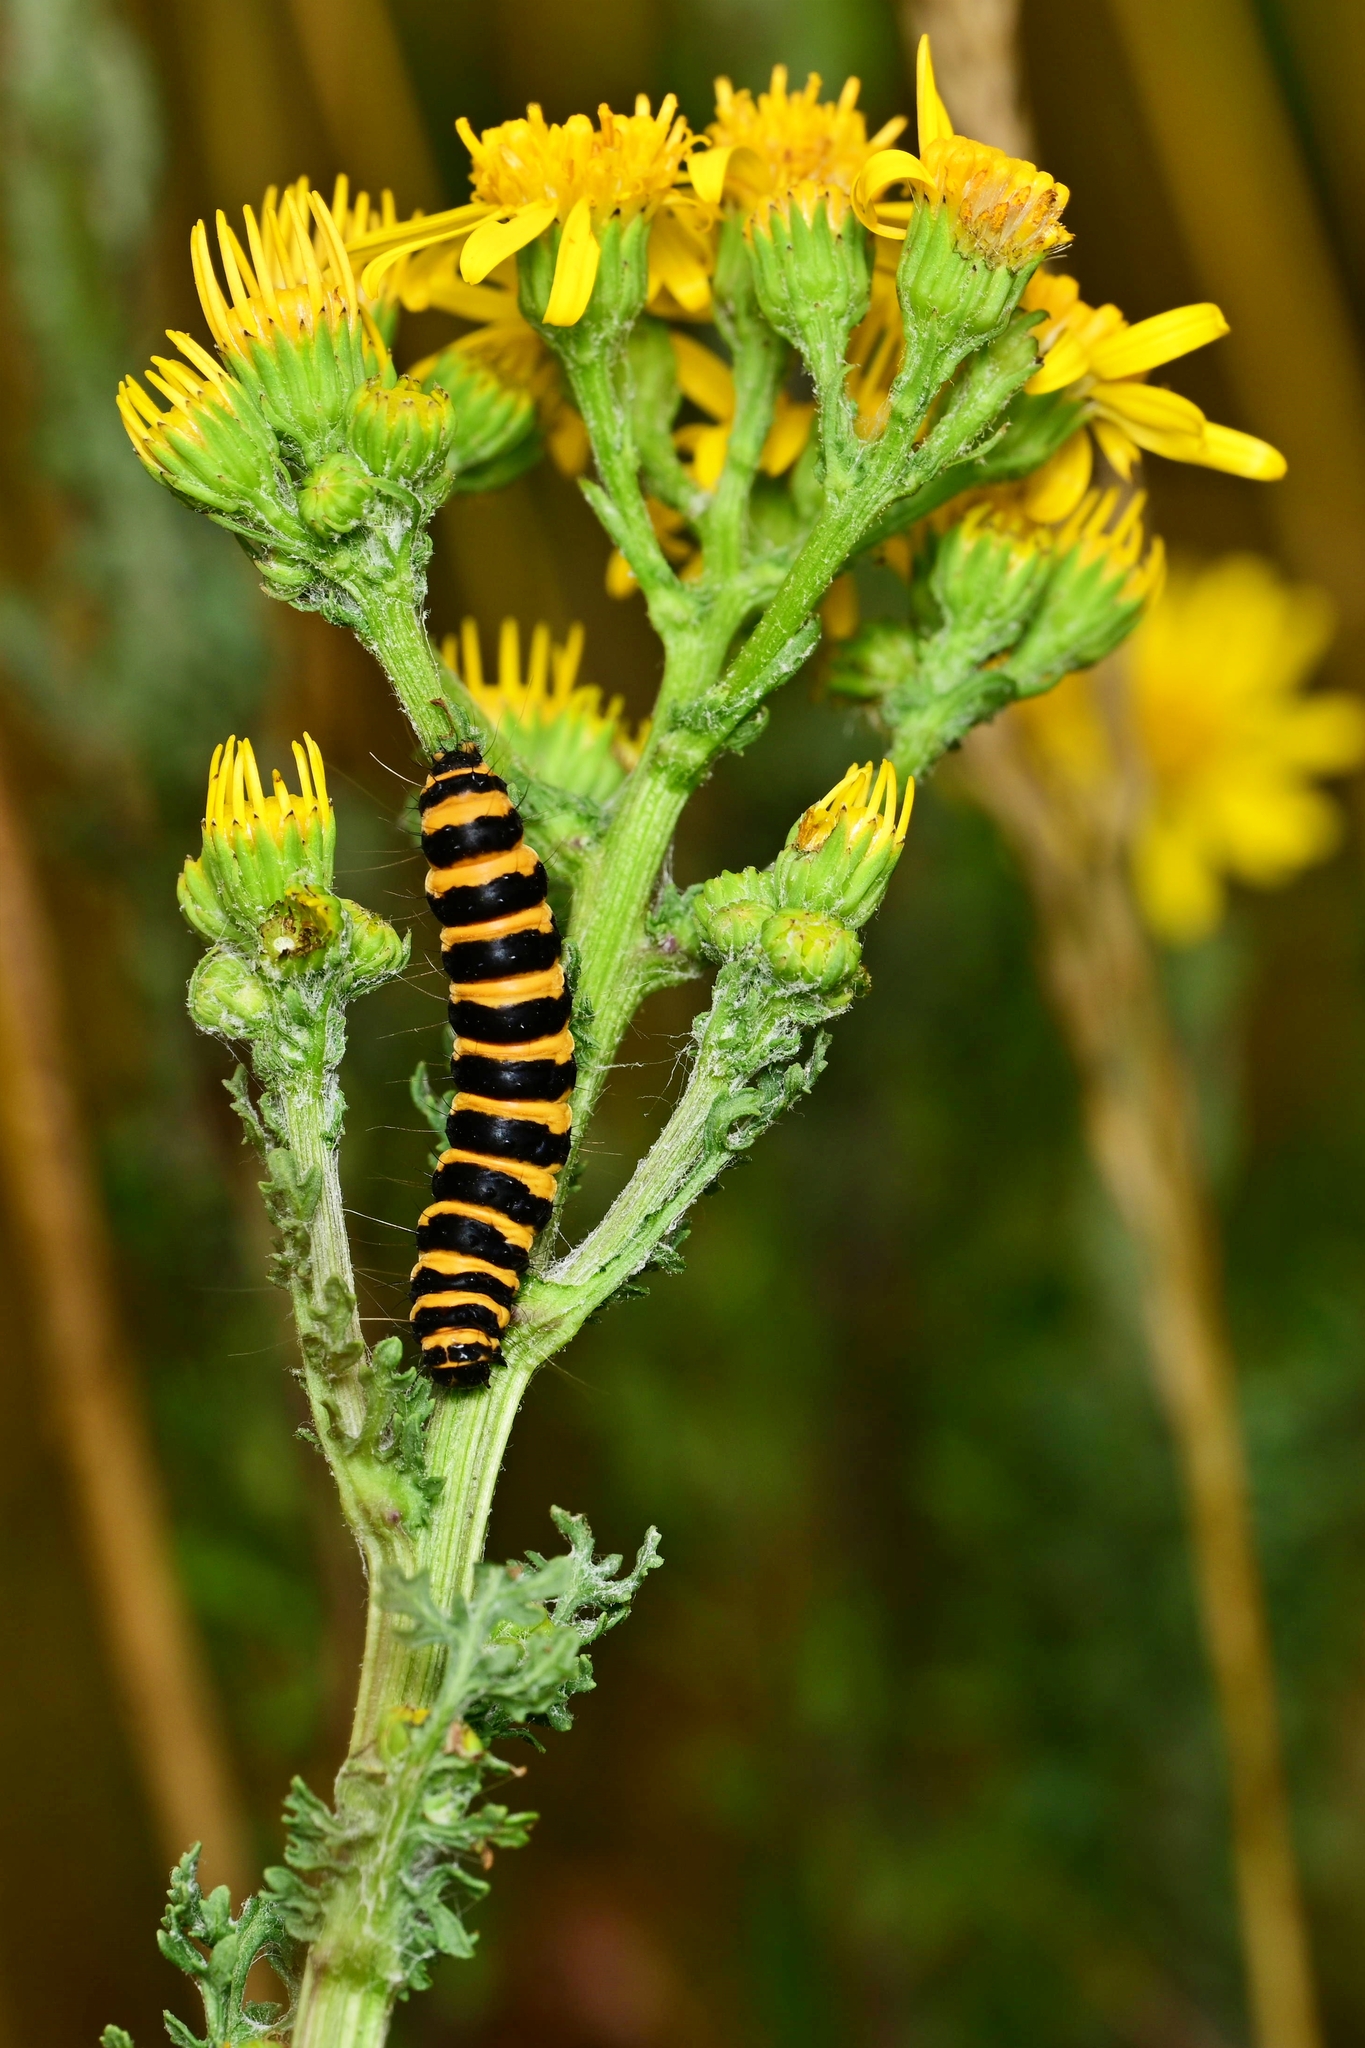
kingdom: Animalia
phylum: Arthropoda
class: Insecta
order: Lepidoptera
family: Erebidae
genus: Tyria
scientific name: Tyria jacobaeae
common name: Cinnabar
